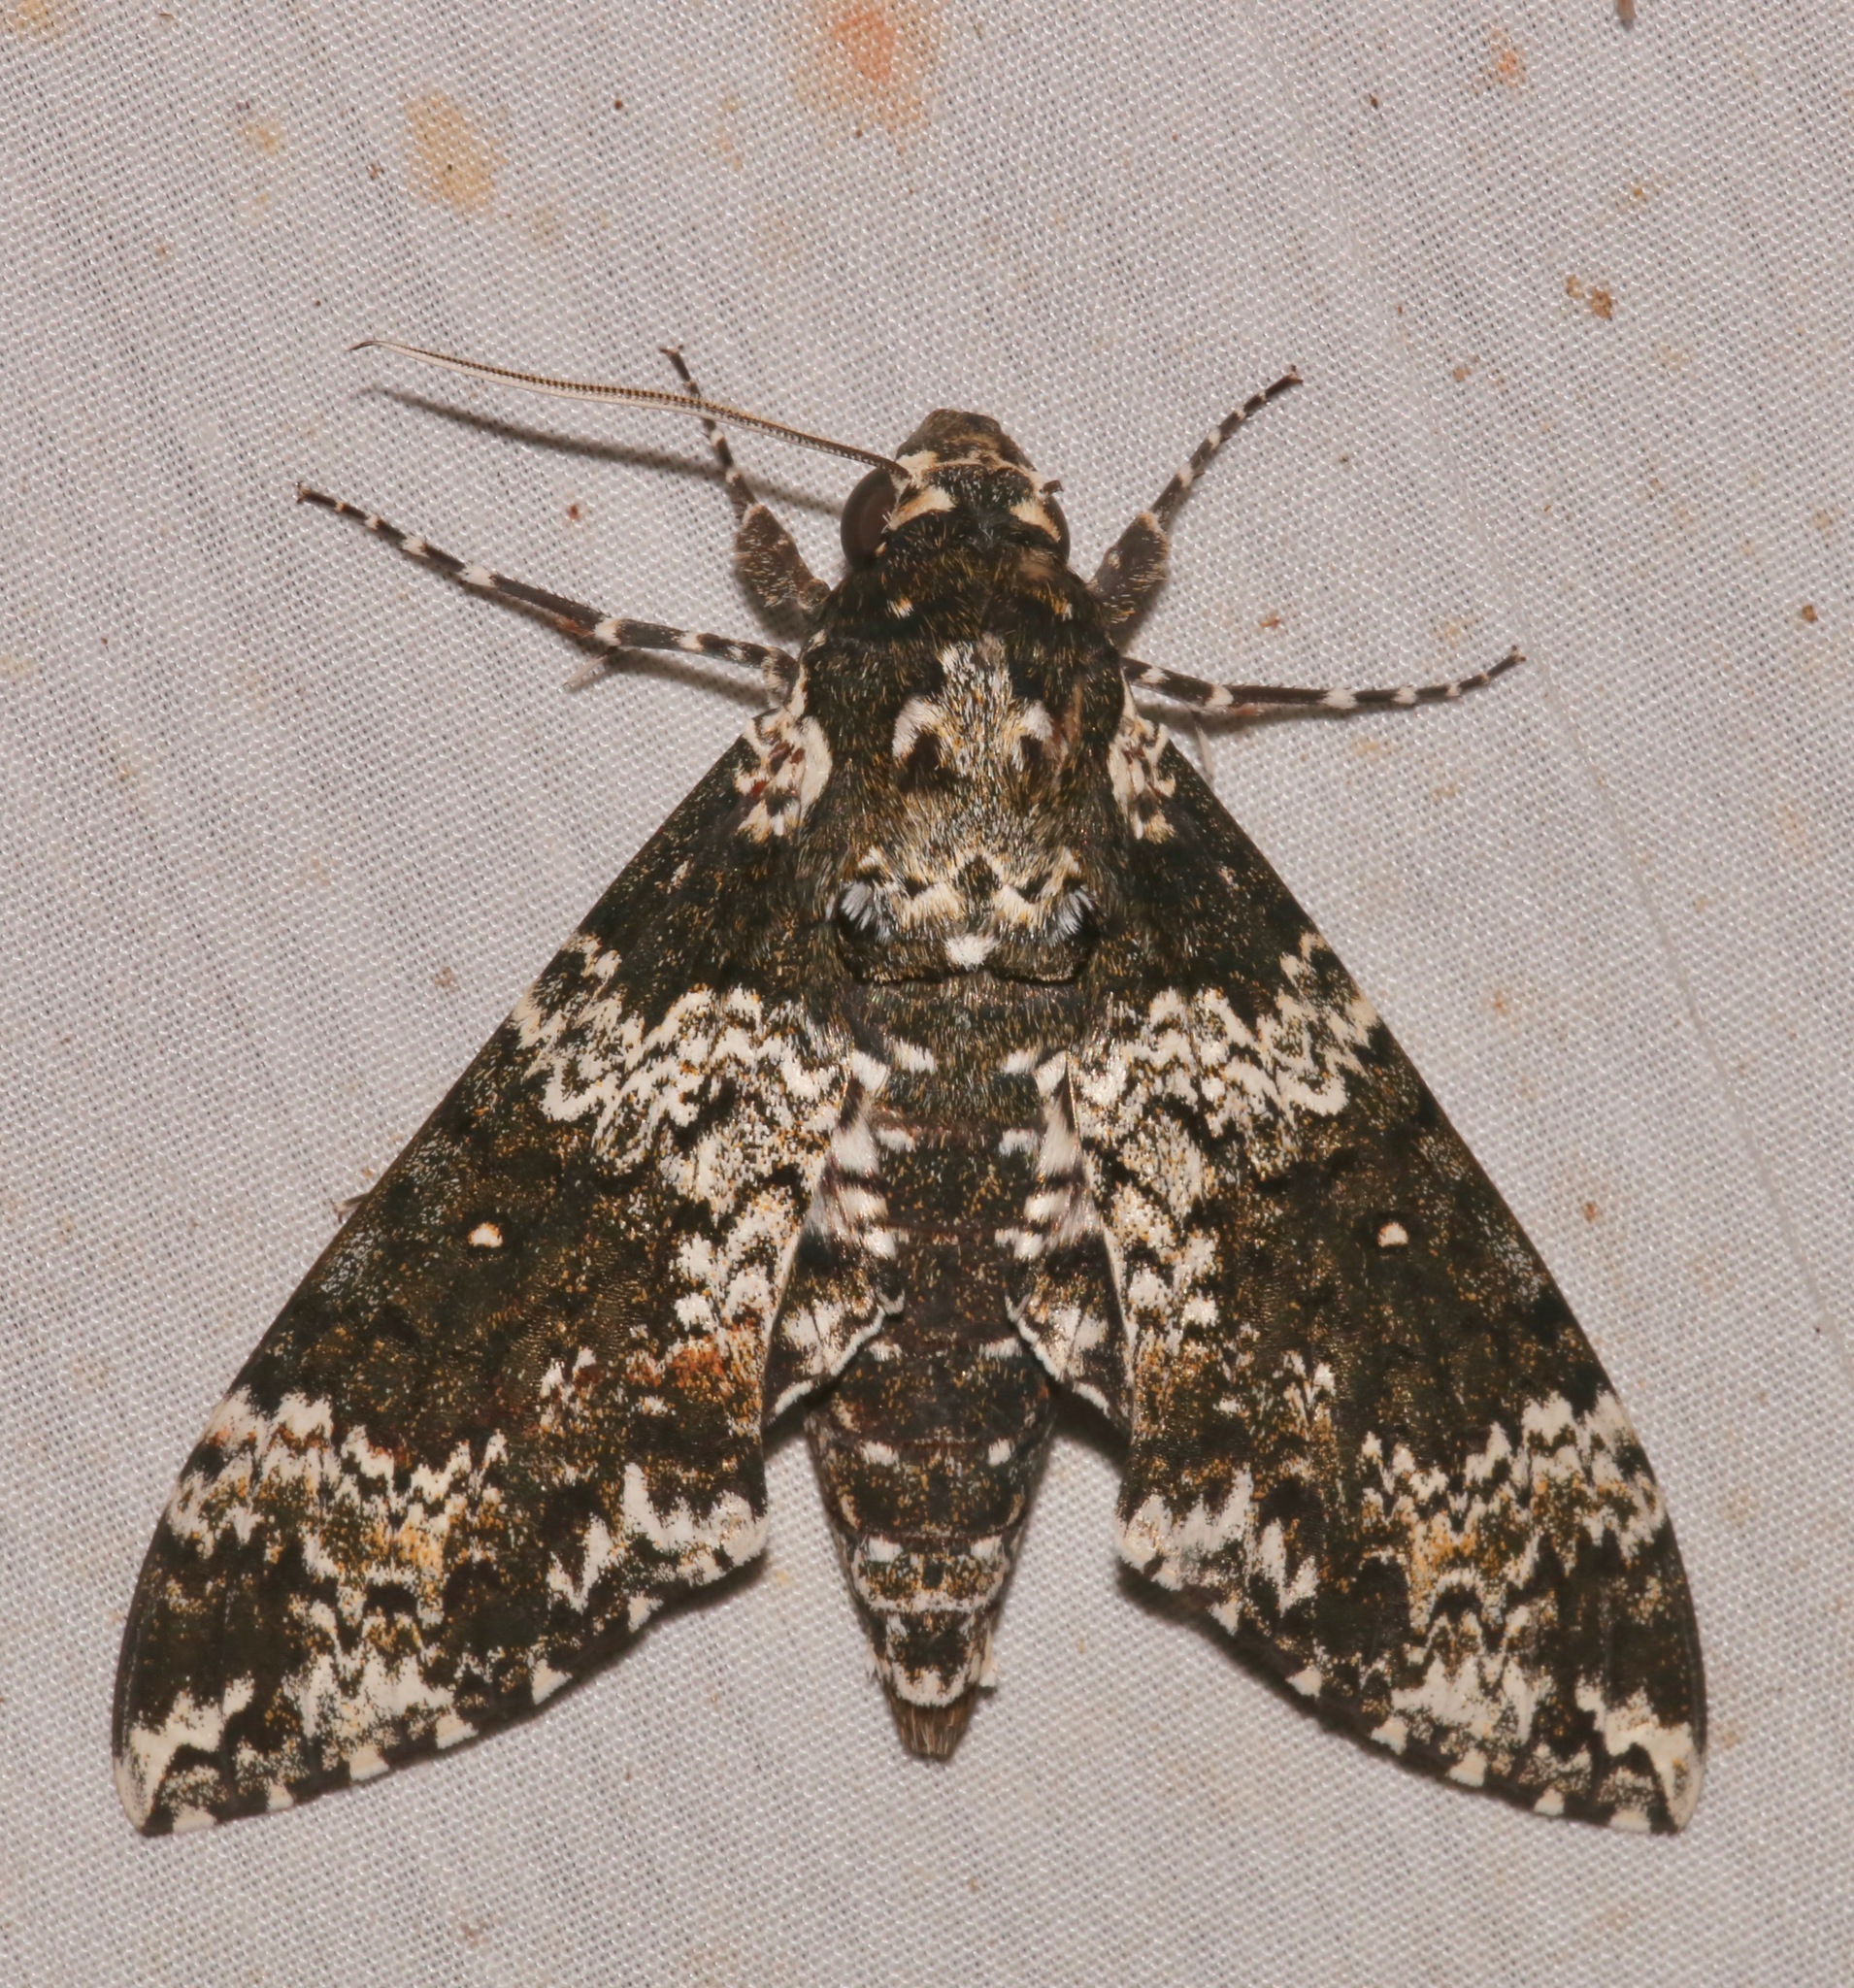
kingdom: Animalia
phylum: Arthropoda
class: Insecta
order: Lepidoptera
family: Sphingidae
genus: Manduca
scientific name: Manduca rustica
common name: Rustic sphinx
